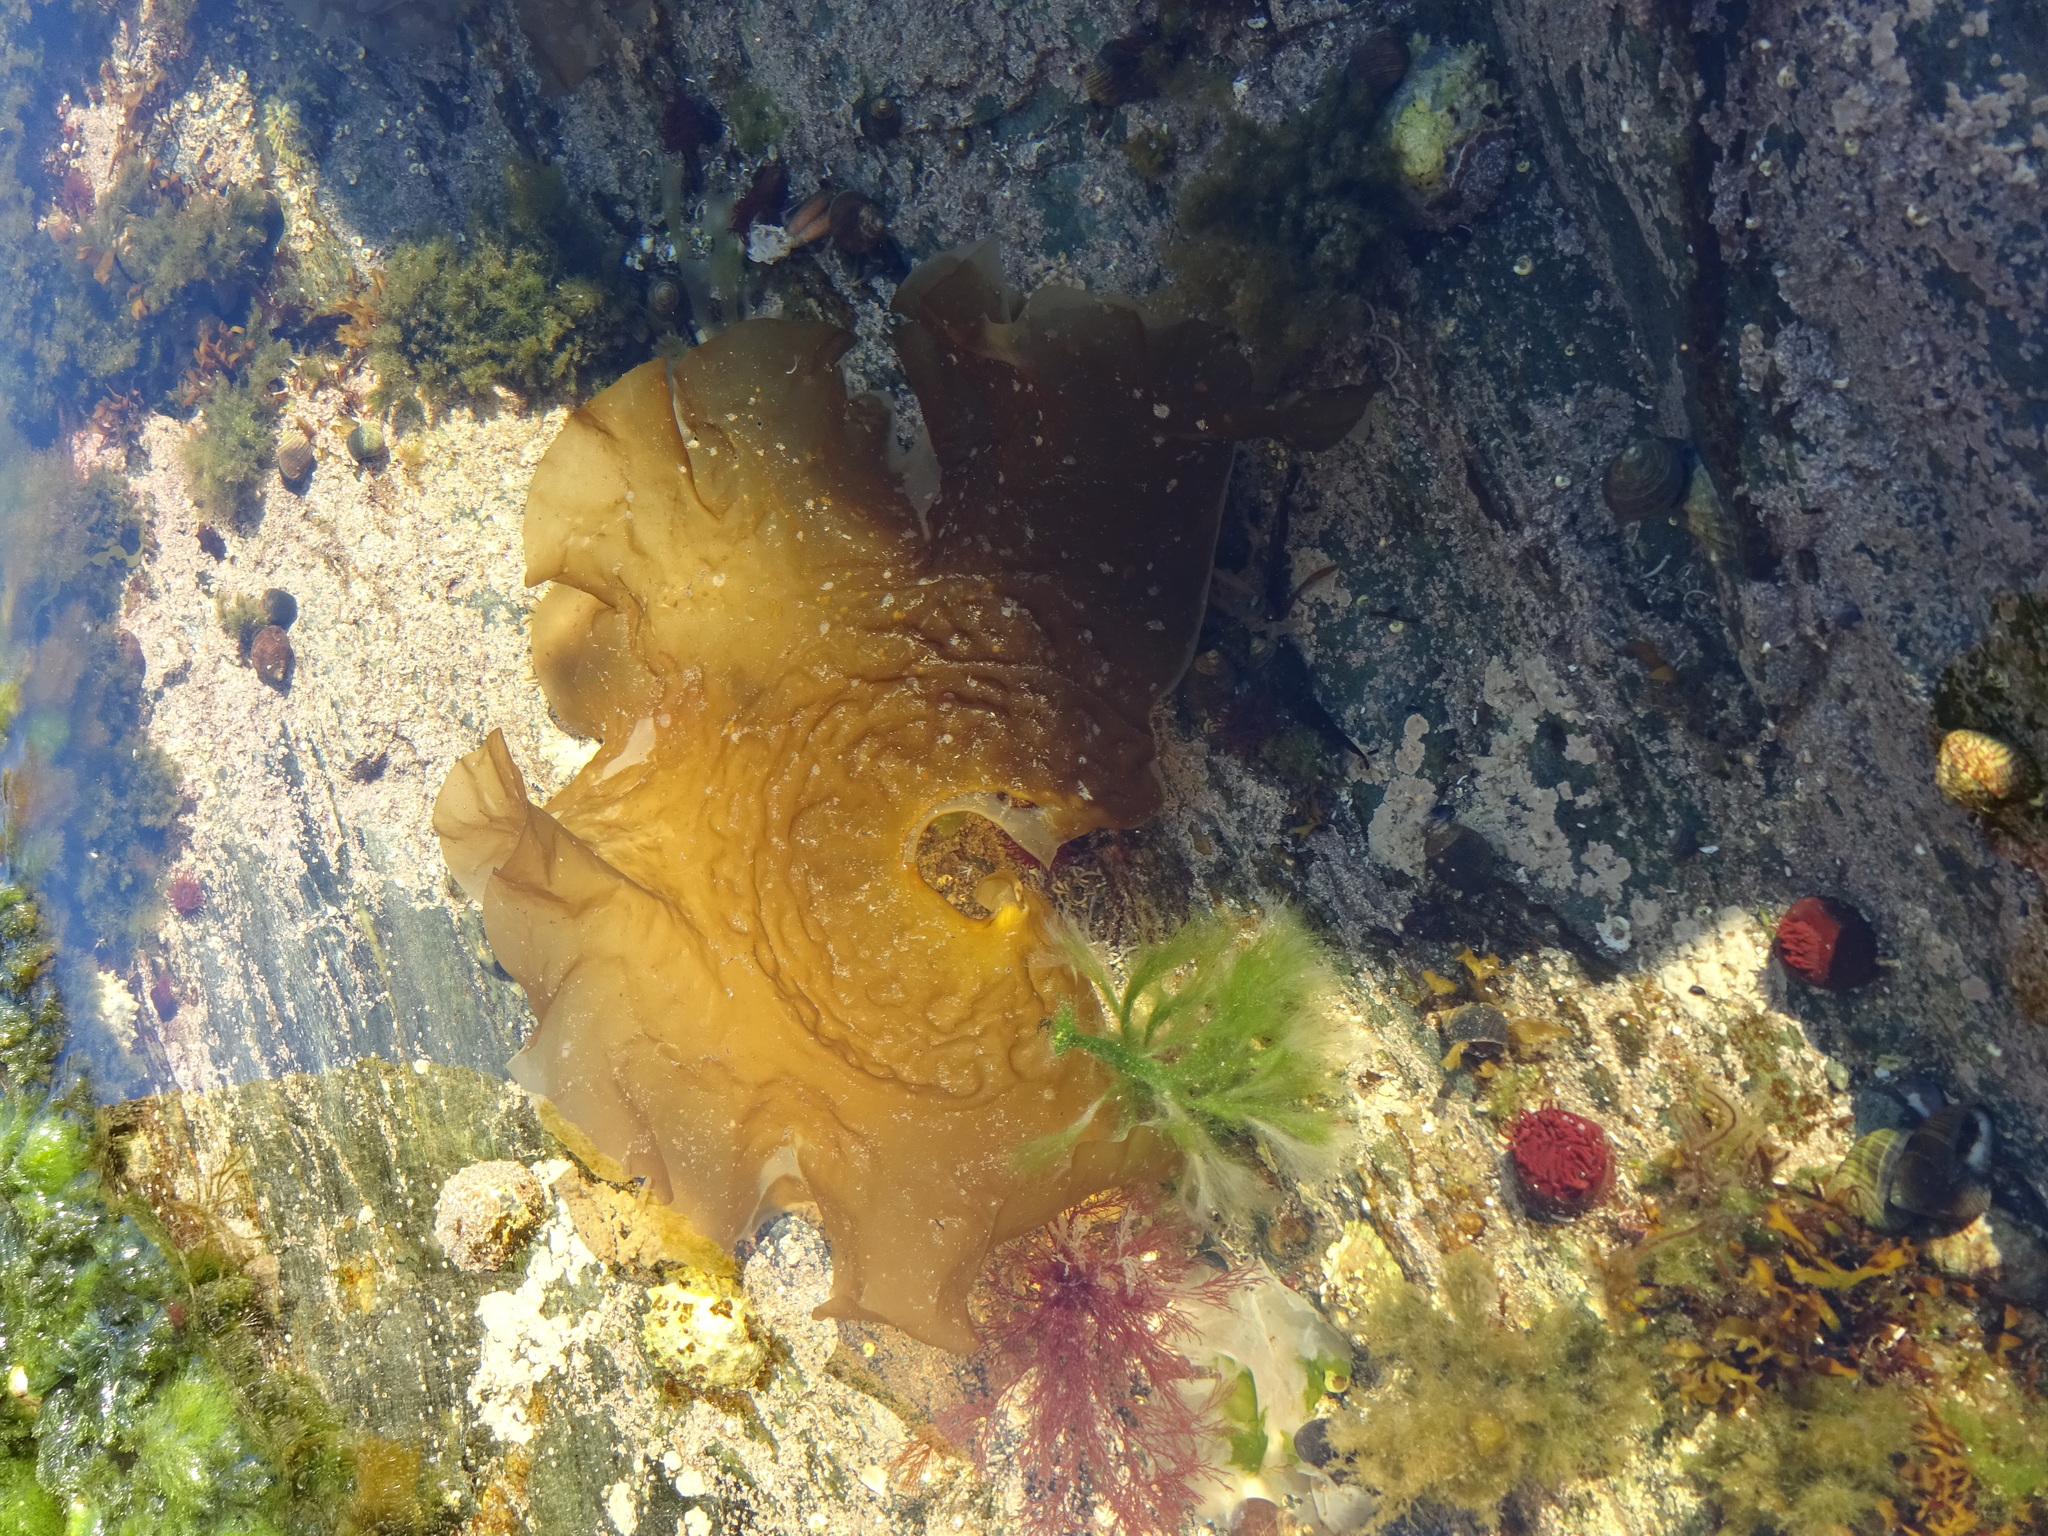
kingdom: Chromista
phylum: Ochrophyta
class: Phaeophyceae
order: Laminariales
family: Laminariaceae
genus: Saccharina
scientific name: Saccharina latissima
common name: Poor man's weather glass
